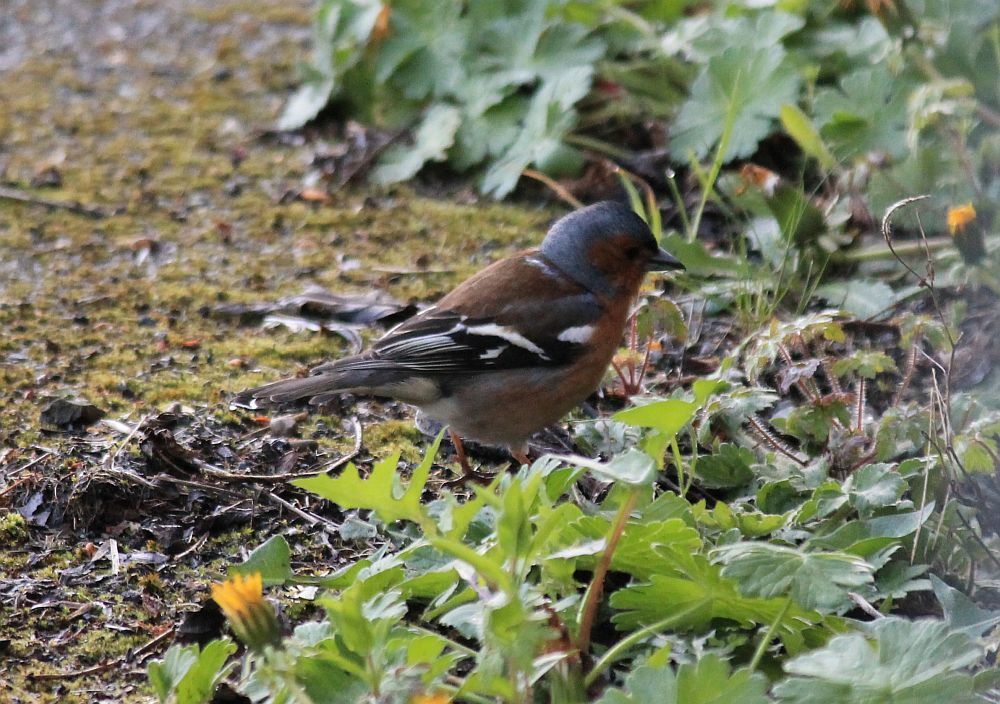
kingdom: Animalia
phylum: Chordata
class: Aves
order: Passeriformes
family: Fringillidae
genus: Fringilla
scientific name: Fringilla coelebs
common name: Common chaffinch
